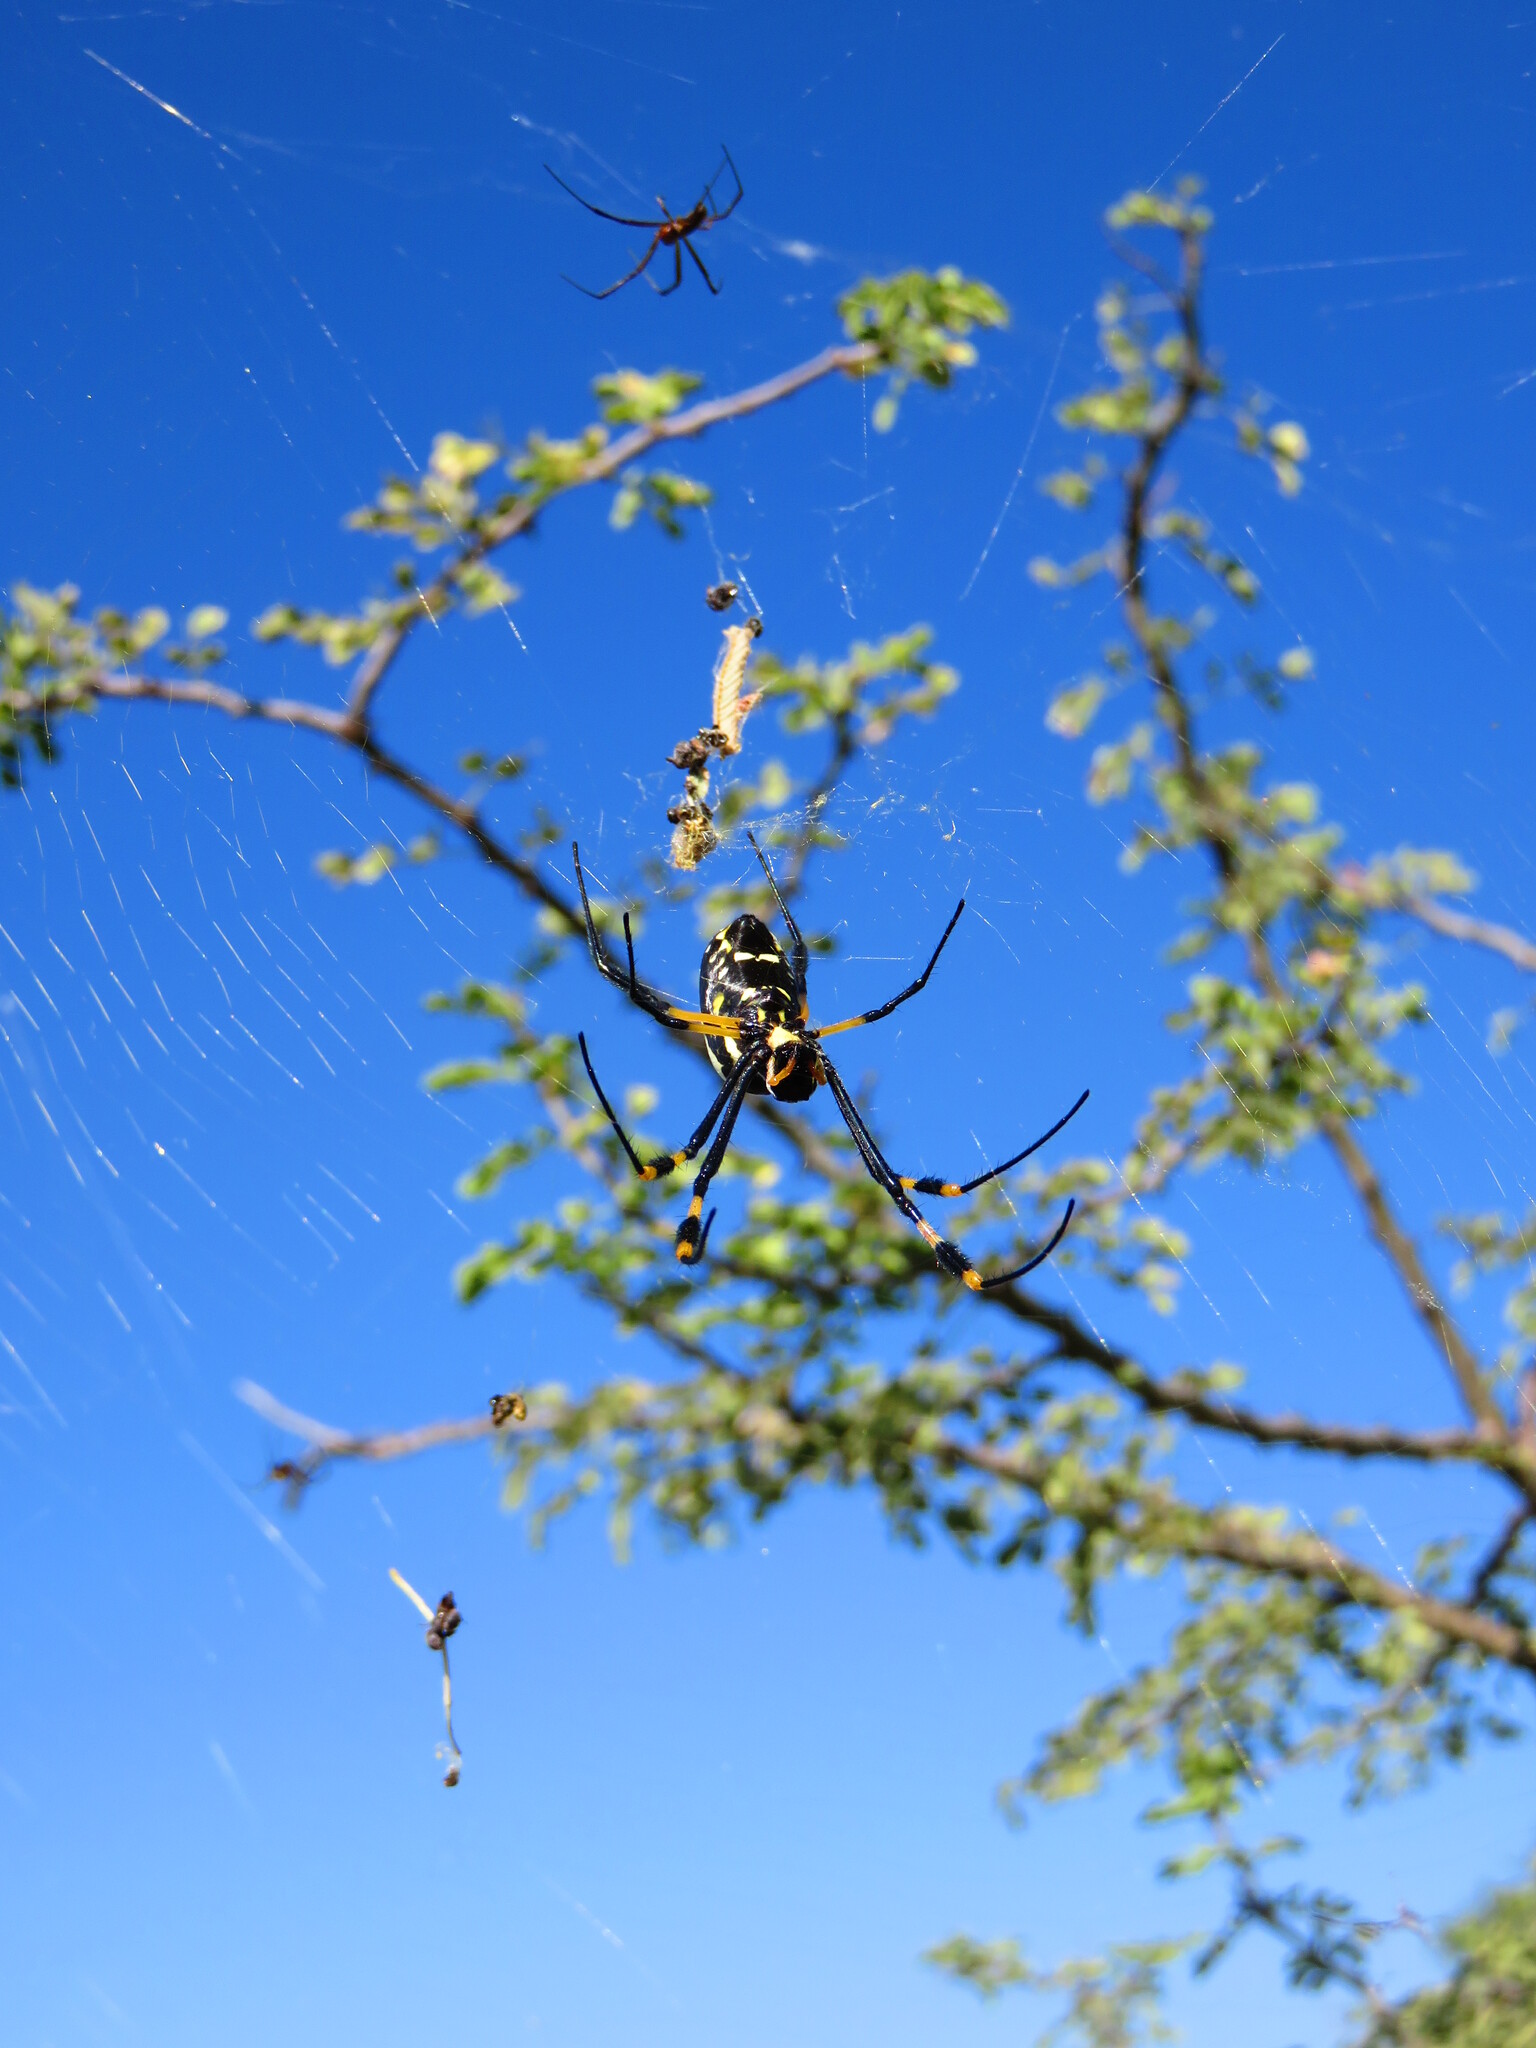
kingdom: Animalia
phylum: Arthropoda
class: Arachnida
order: Araneae
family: Araneidae
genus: Trichonephila
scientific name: Trichonephila senegalensis
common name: Banded golden orb weaver
